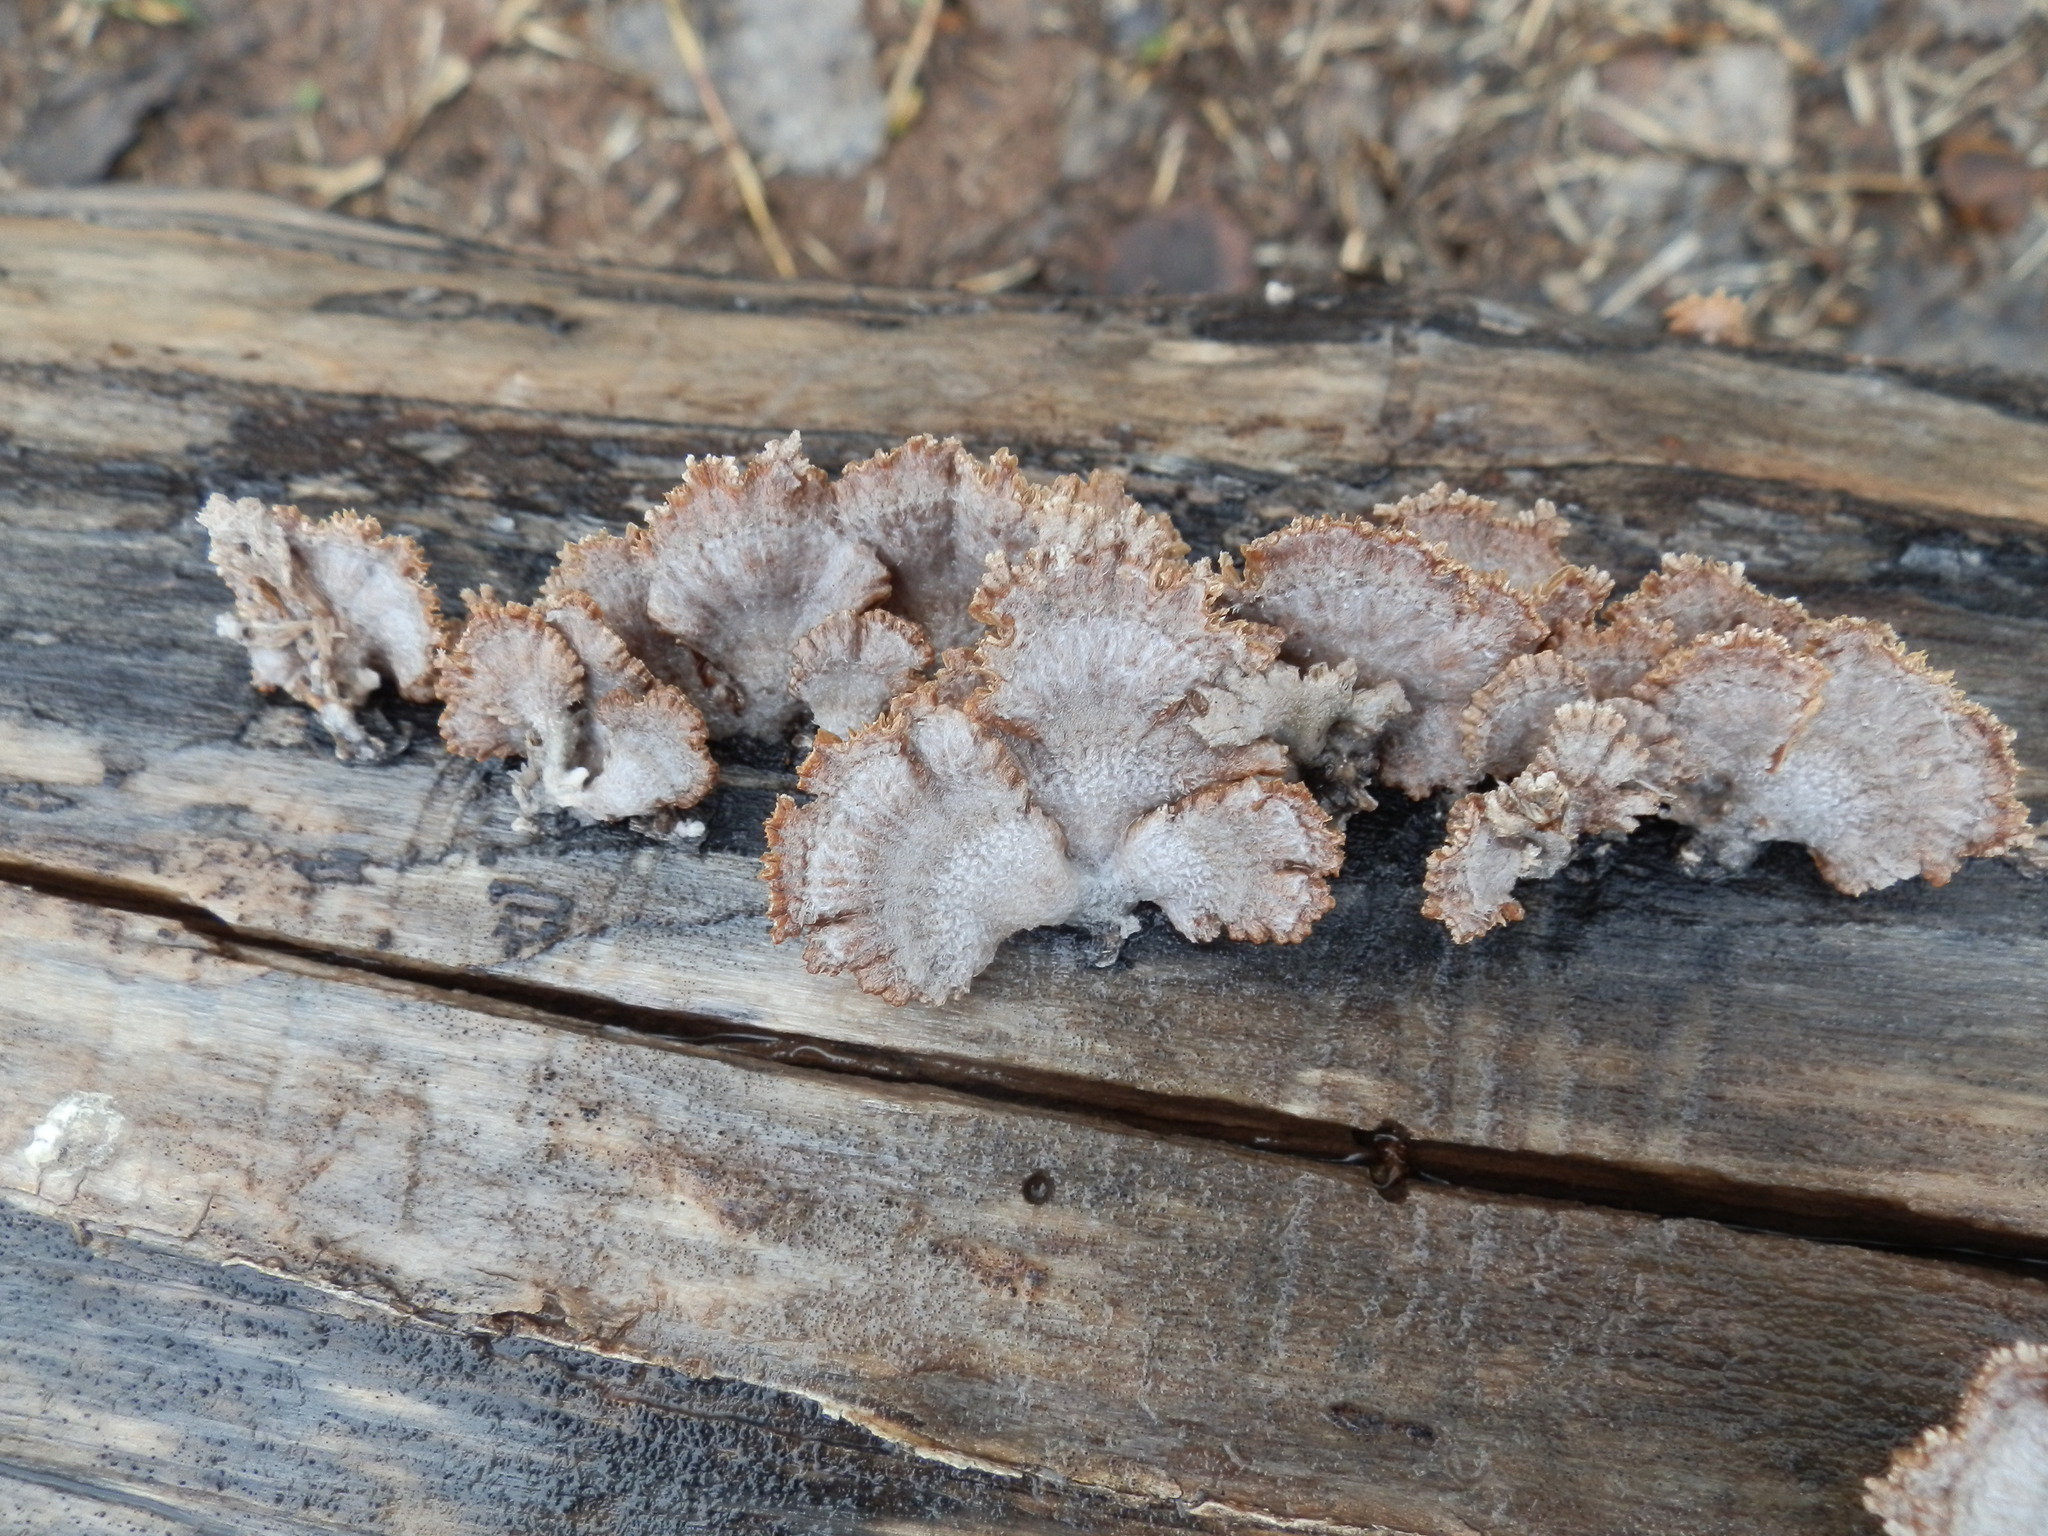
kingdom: Fungi
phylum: Basidiomycota
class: Agaricomycetes
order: Agaricales
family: Schizophyllaceae
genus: Schizophyllum
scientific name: Schizophyllum commune
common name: Common porecrust
